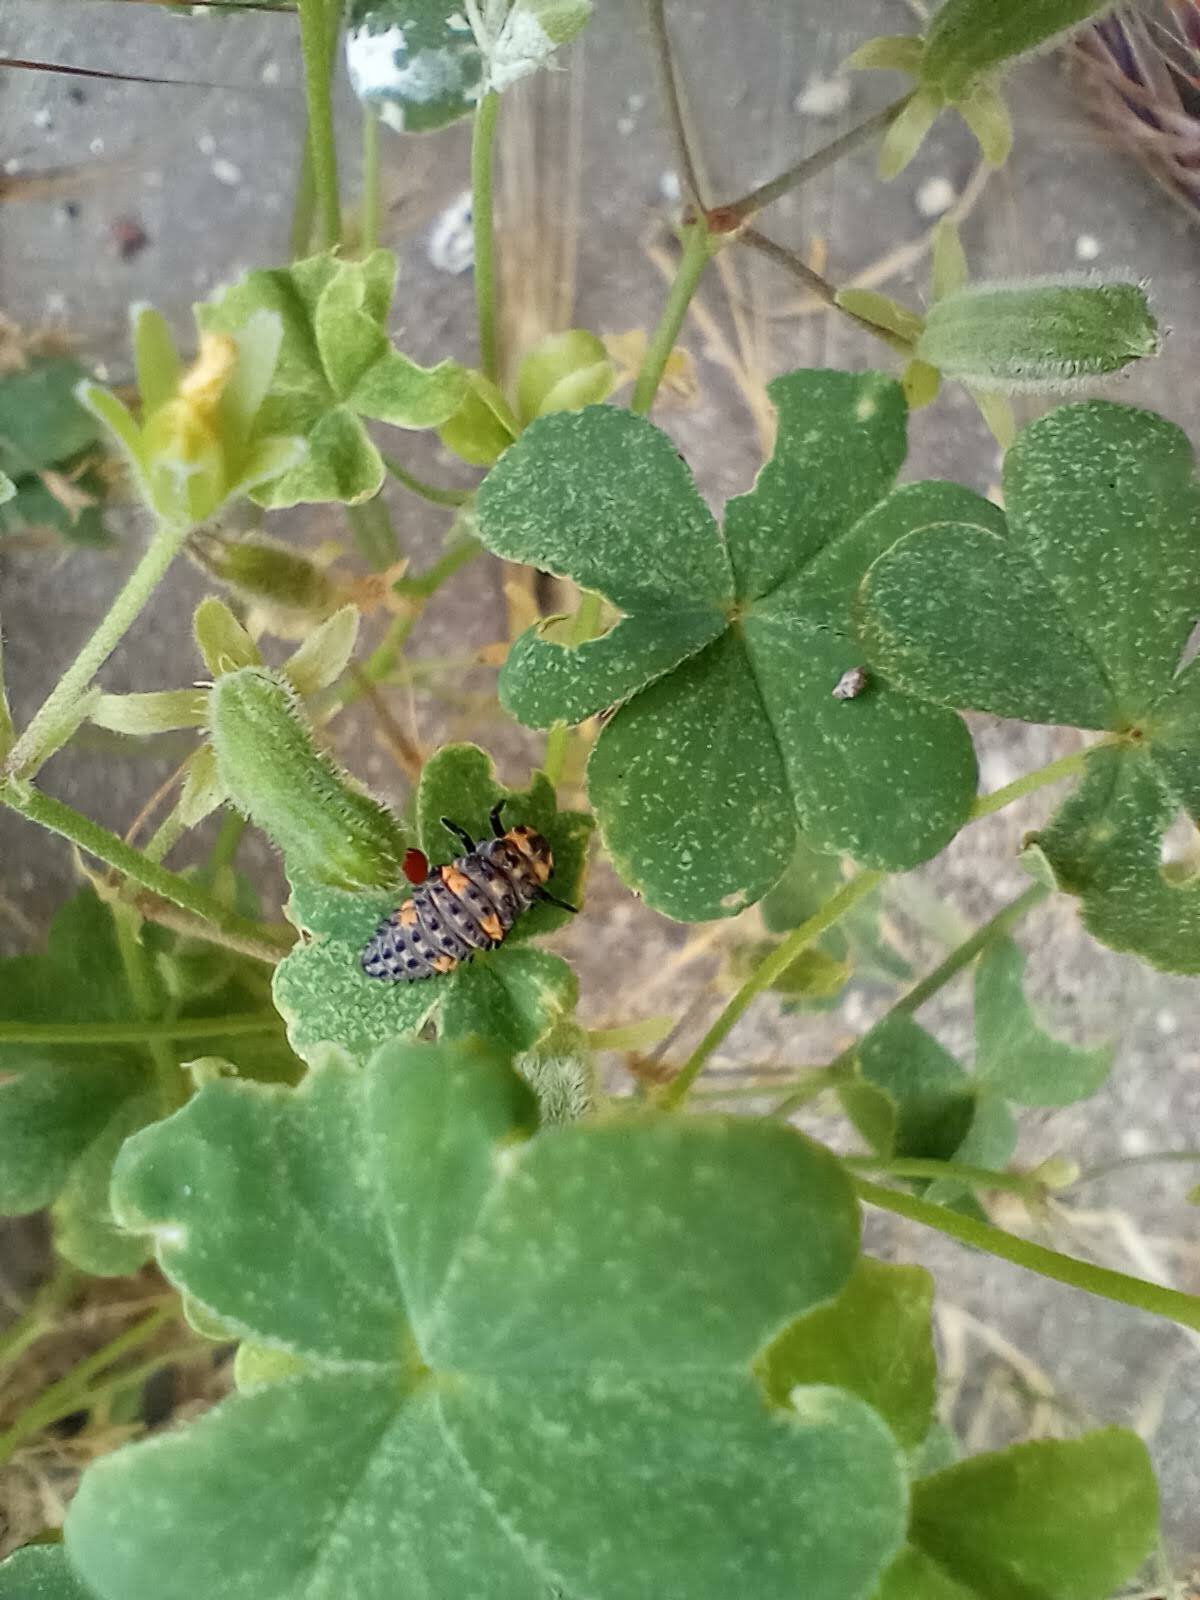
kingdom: Animalia
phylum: Arthropoda
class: Insecta
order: Coleoptera
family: Coccinellidae
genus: Coccinella
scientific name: Coccinella septempunctata
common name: Sevenspotted lady beetle
